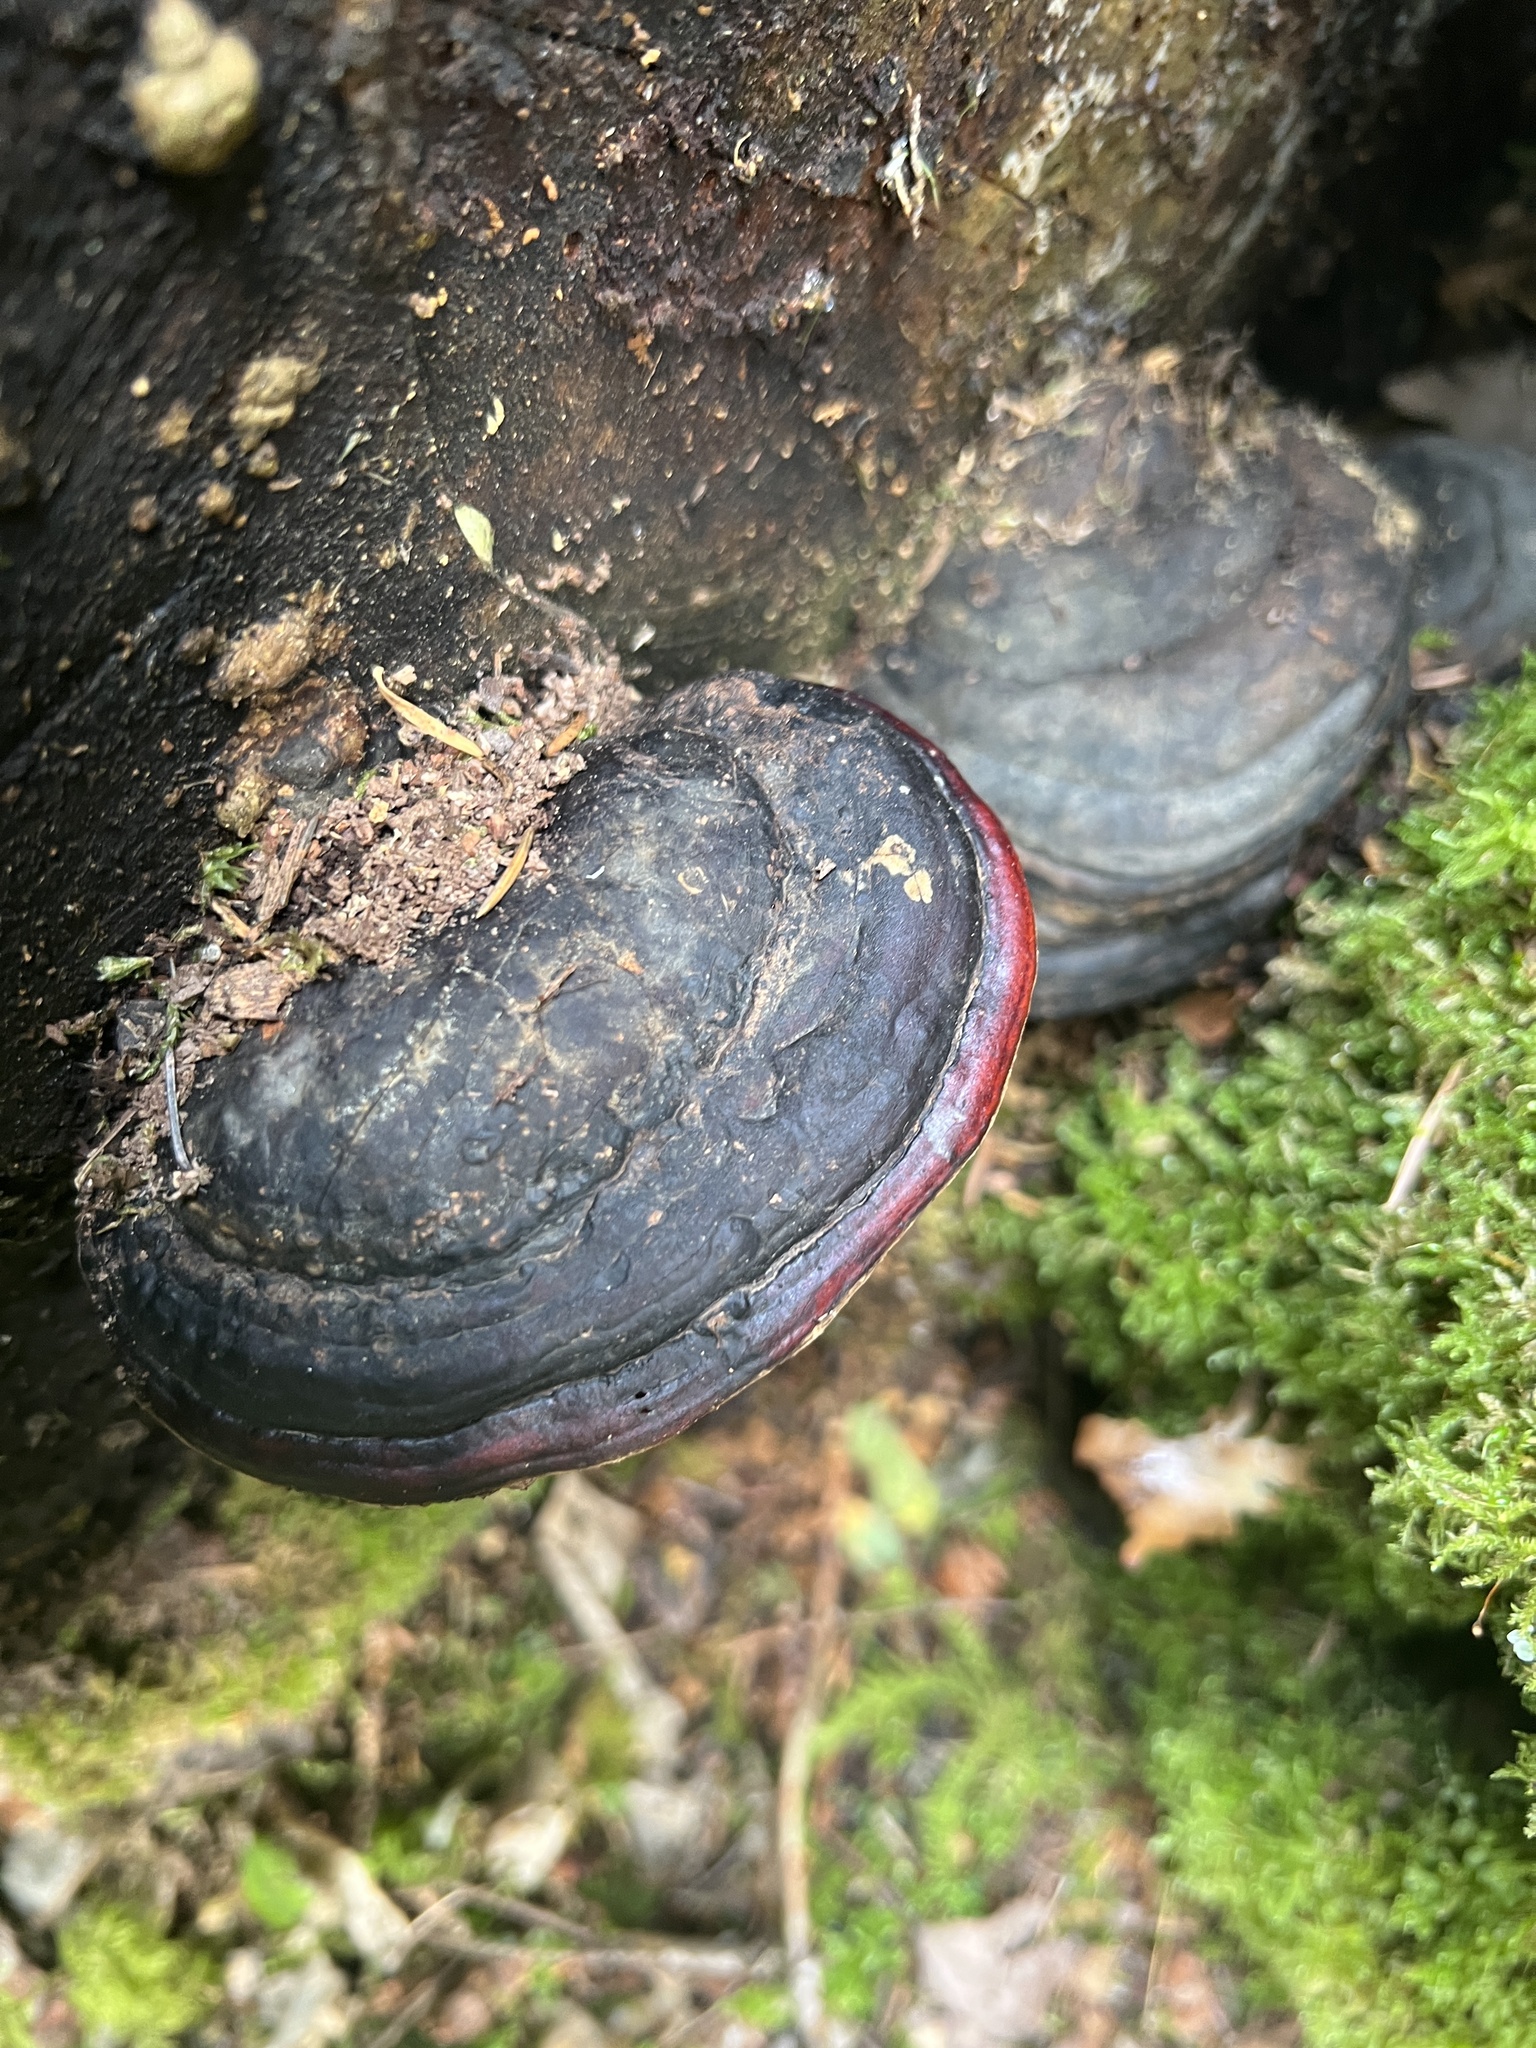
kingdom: Fungi
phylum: Basidiomycota
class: Agaricomycetes
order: Polyporales
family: Fomitopsidaceae
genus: Fomitopsis
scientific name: Fomitopsis mounceae
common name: Northern red belt
